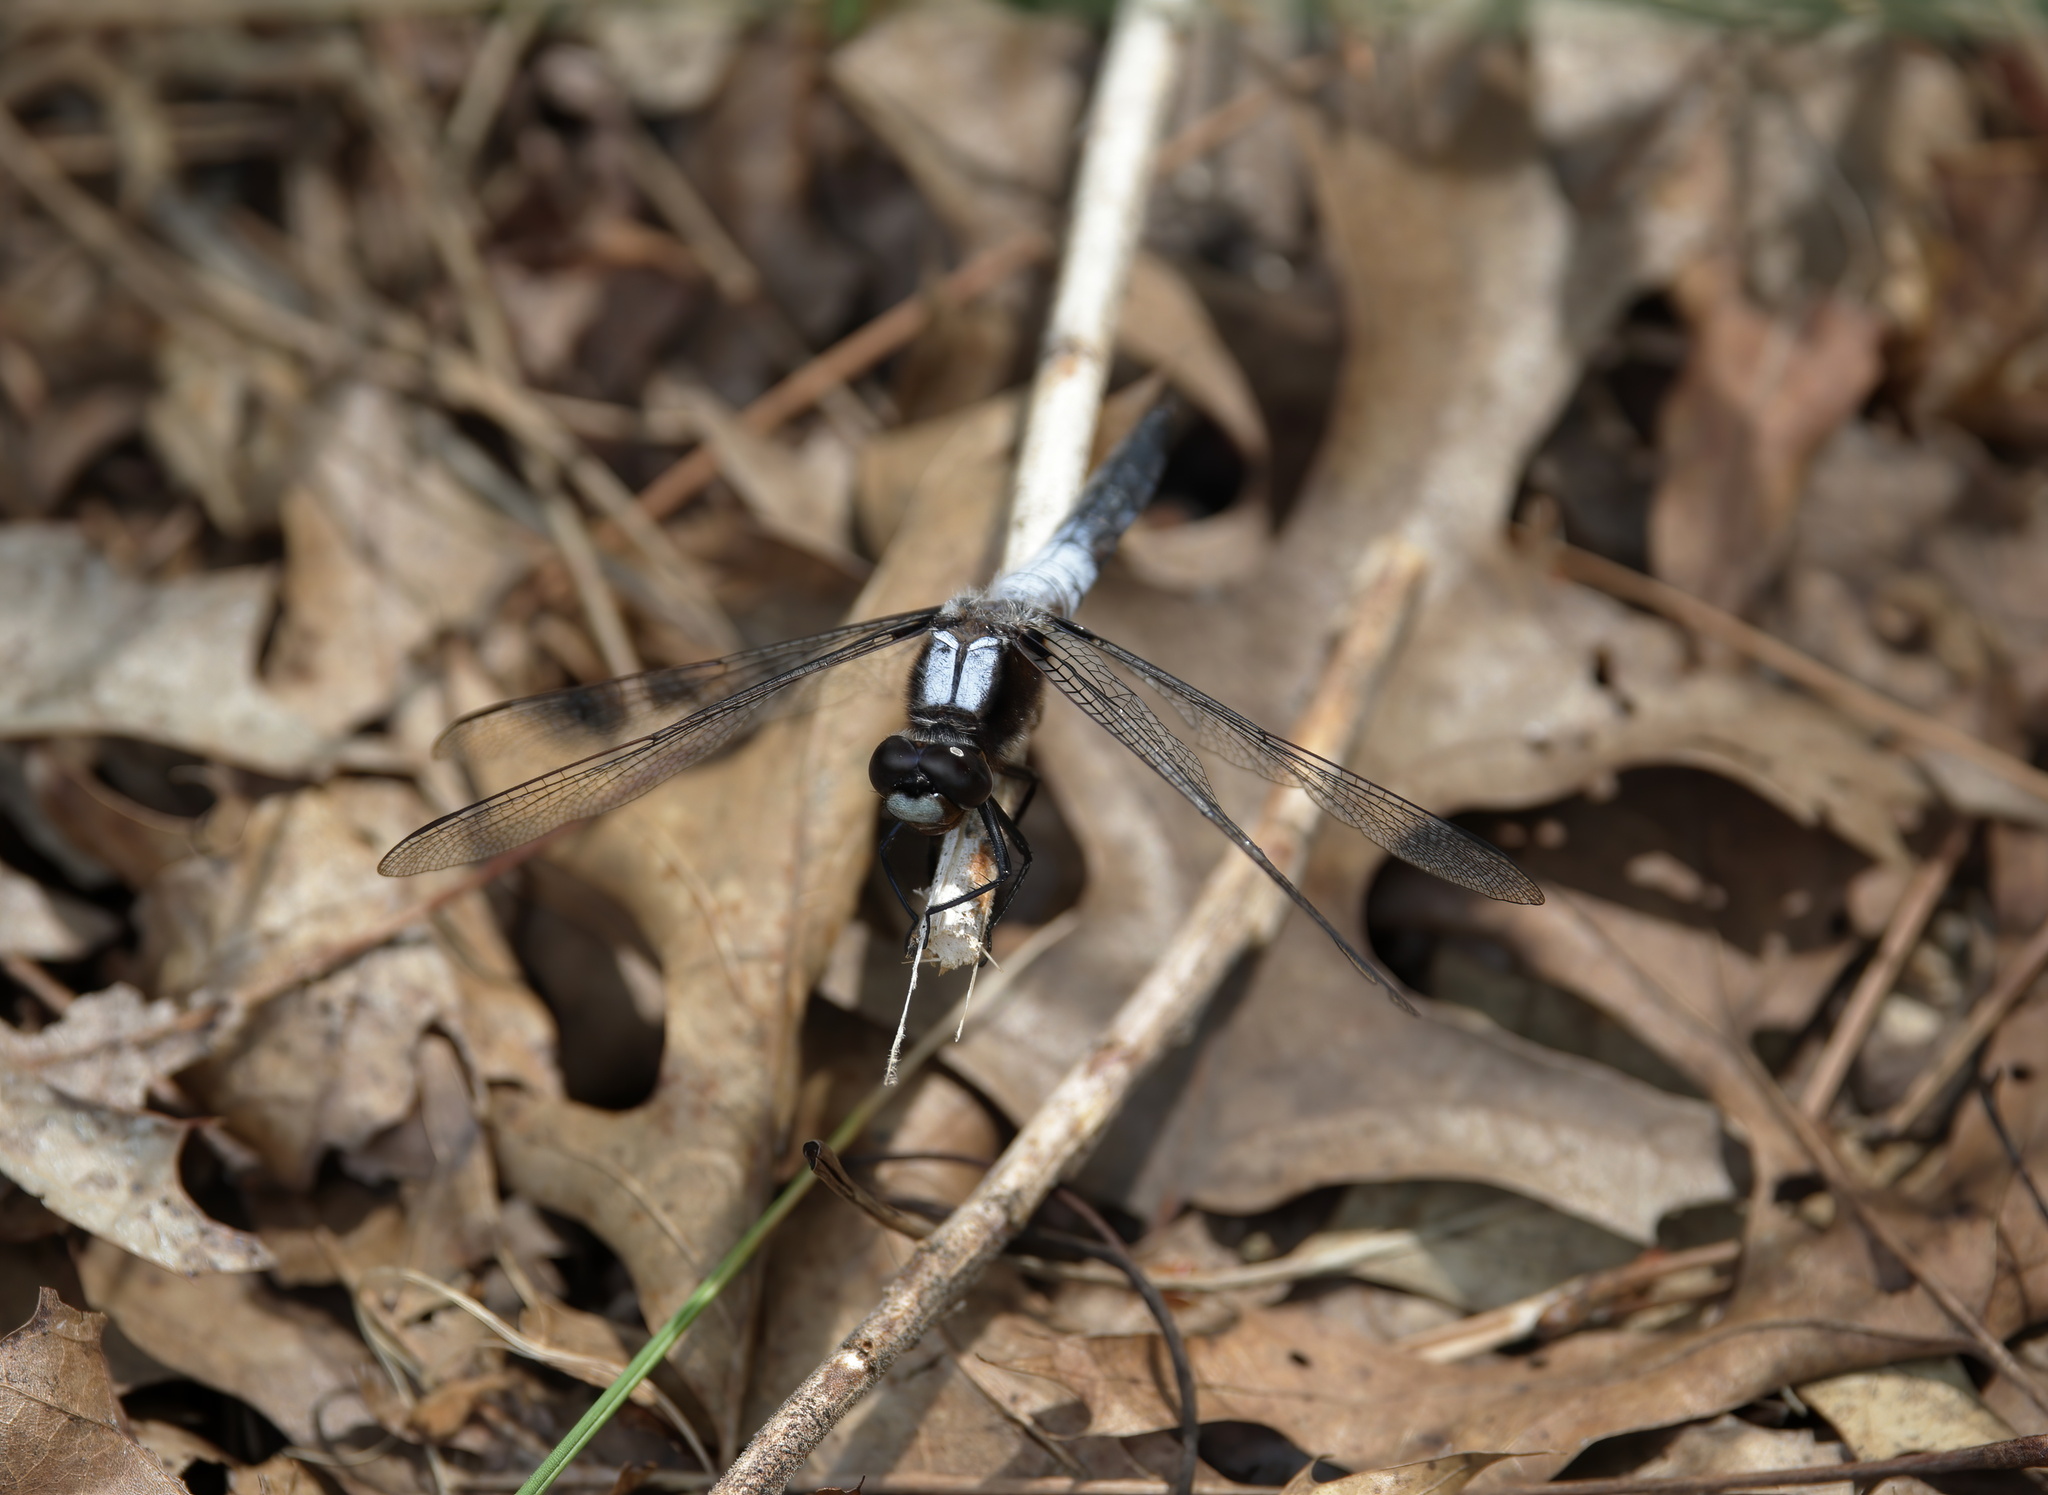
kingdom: Animalia
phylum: Arthropoda
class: Insecta
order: Odonata
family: Libellulidae
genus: Ladona
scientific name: Ladona julia
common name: Chalk-fronted corporal
